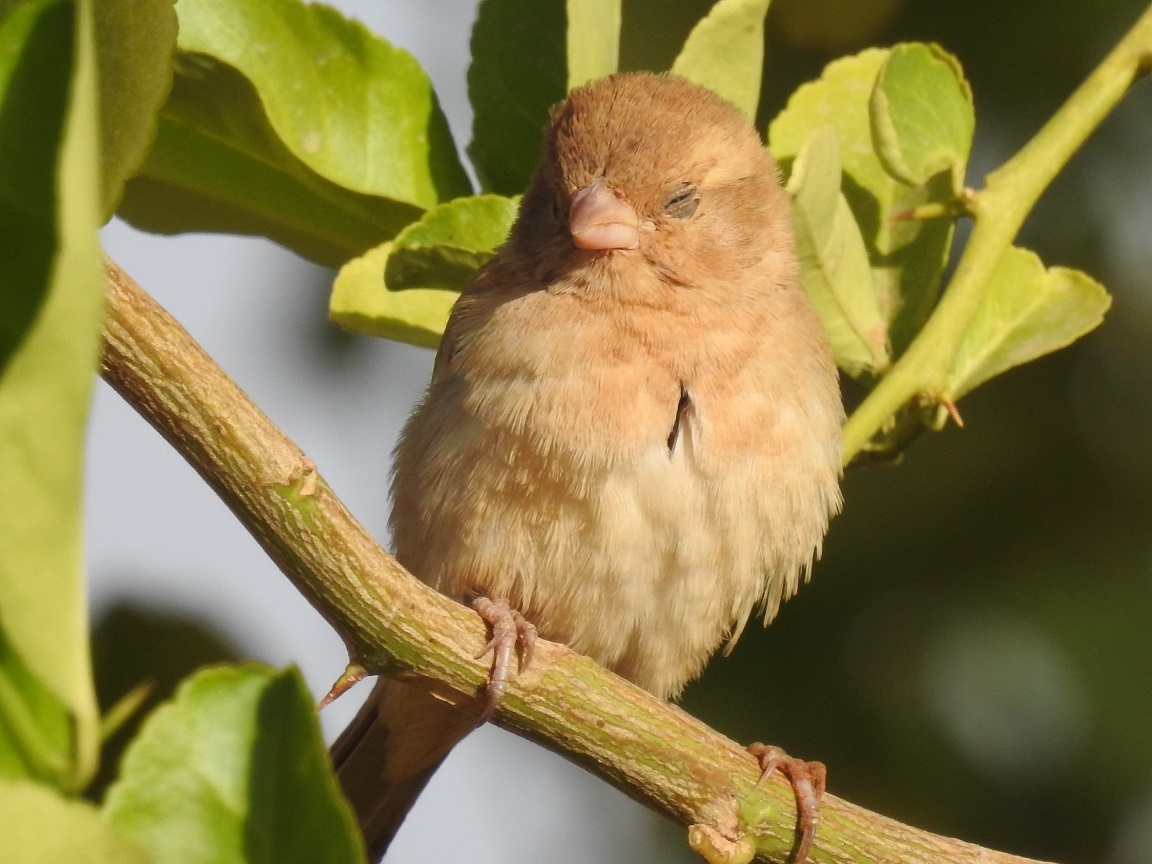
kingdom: Animalia
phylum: Chordata
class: Aves
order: Passeriformes
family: Passeridae
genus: Passer
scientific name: Passer luteus
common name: Sudan golden sparrow
